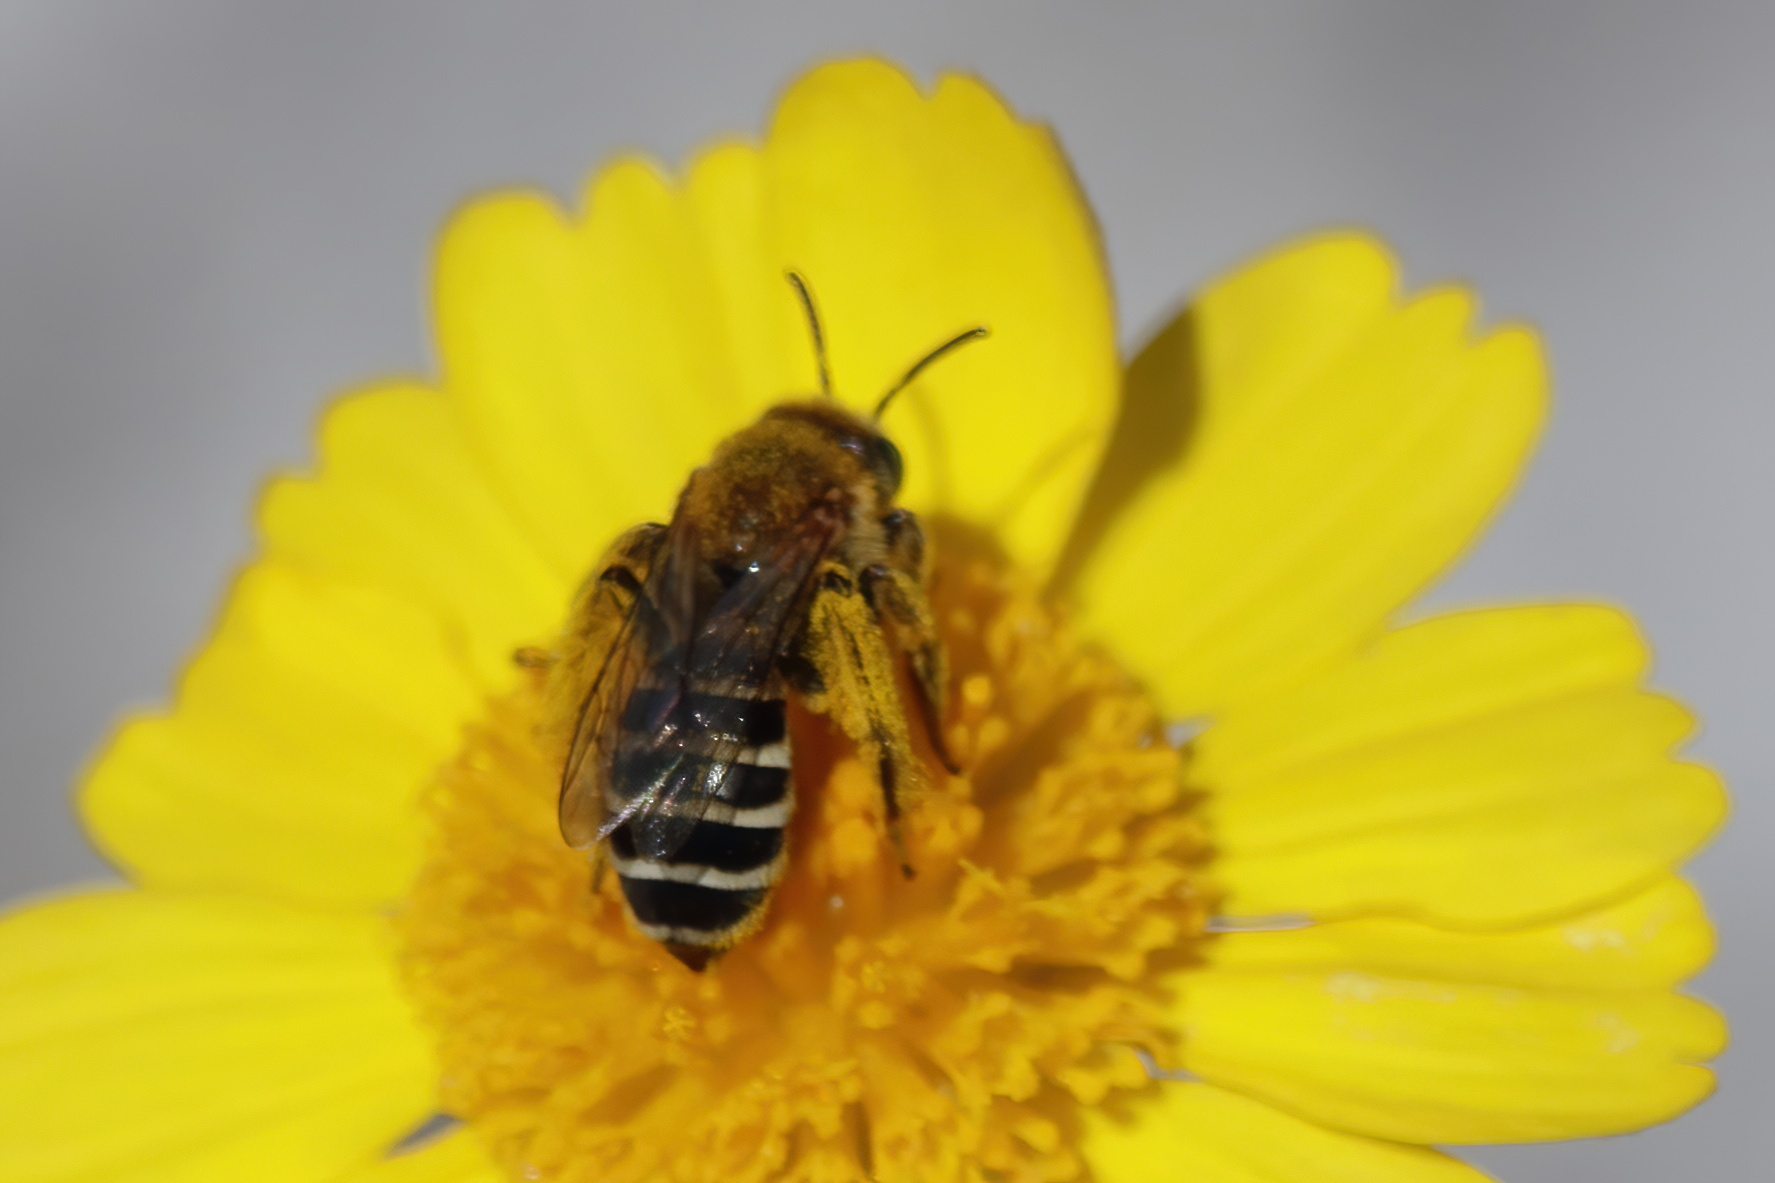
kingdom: Animalia
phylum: Arthropoda
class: Insecta
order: Hymenoptera
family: Melittidae
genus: Hesperapis
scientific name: Hesperapis oraria
